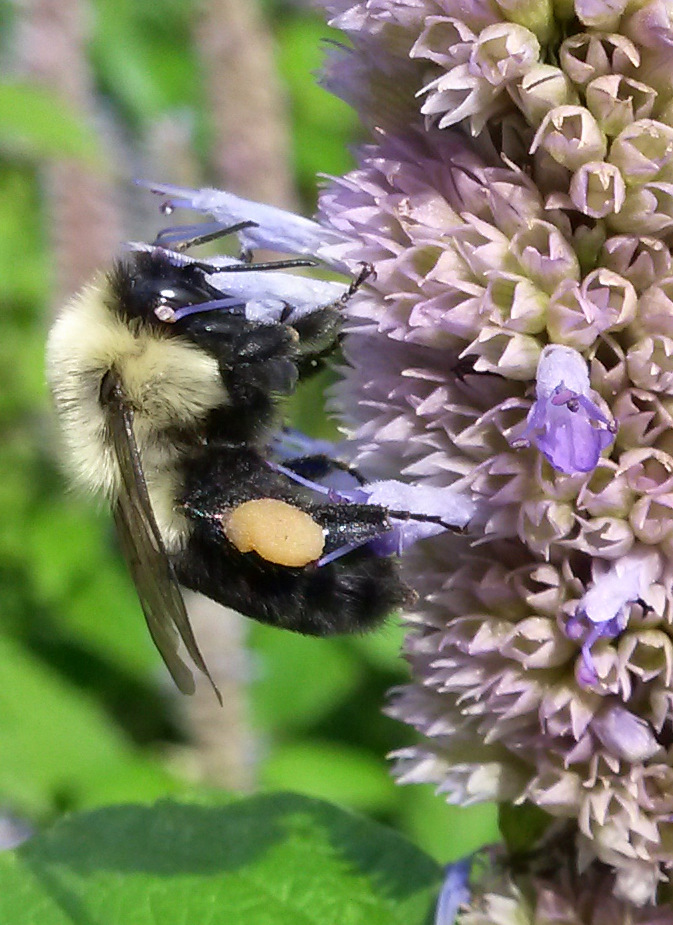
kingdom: Animalia
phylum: Arthropoda
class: Insecta
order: Hymenoptera
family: Apidae
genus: Bombus
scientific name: Bombus impatiens
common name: Common eastern bumble bee
